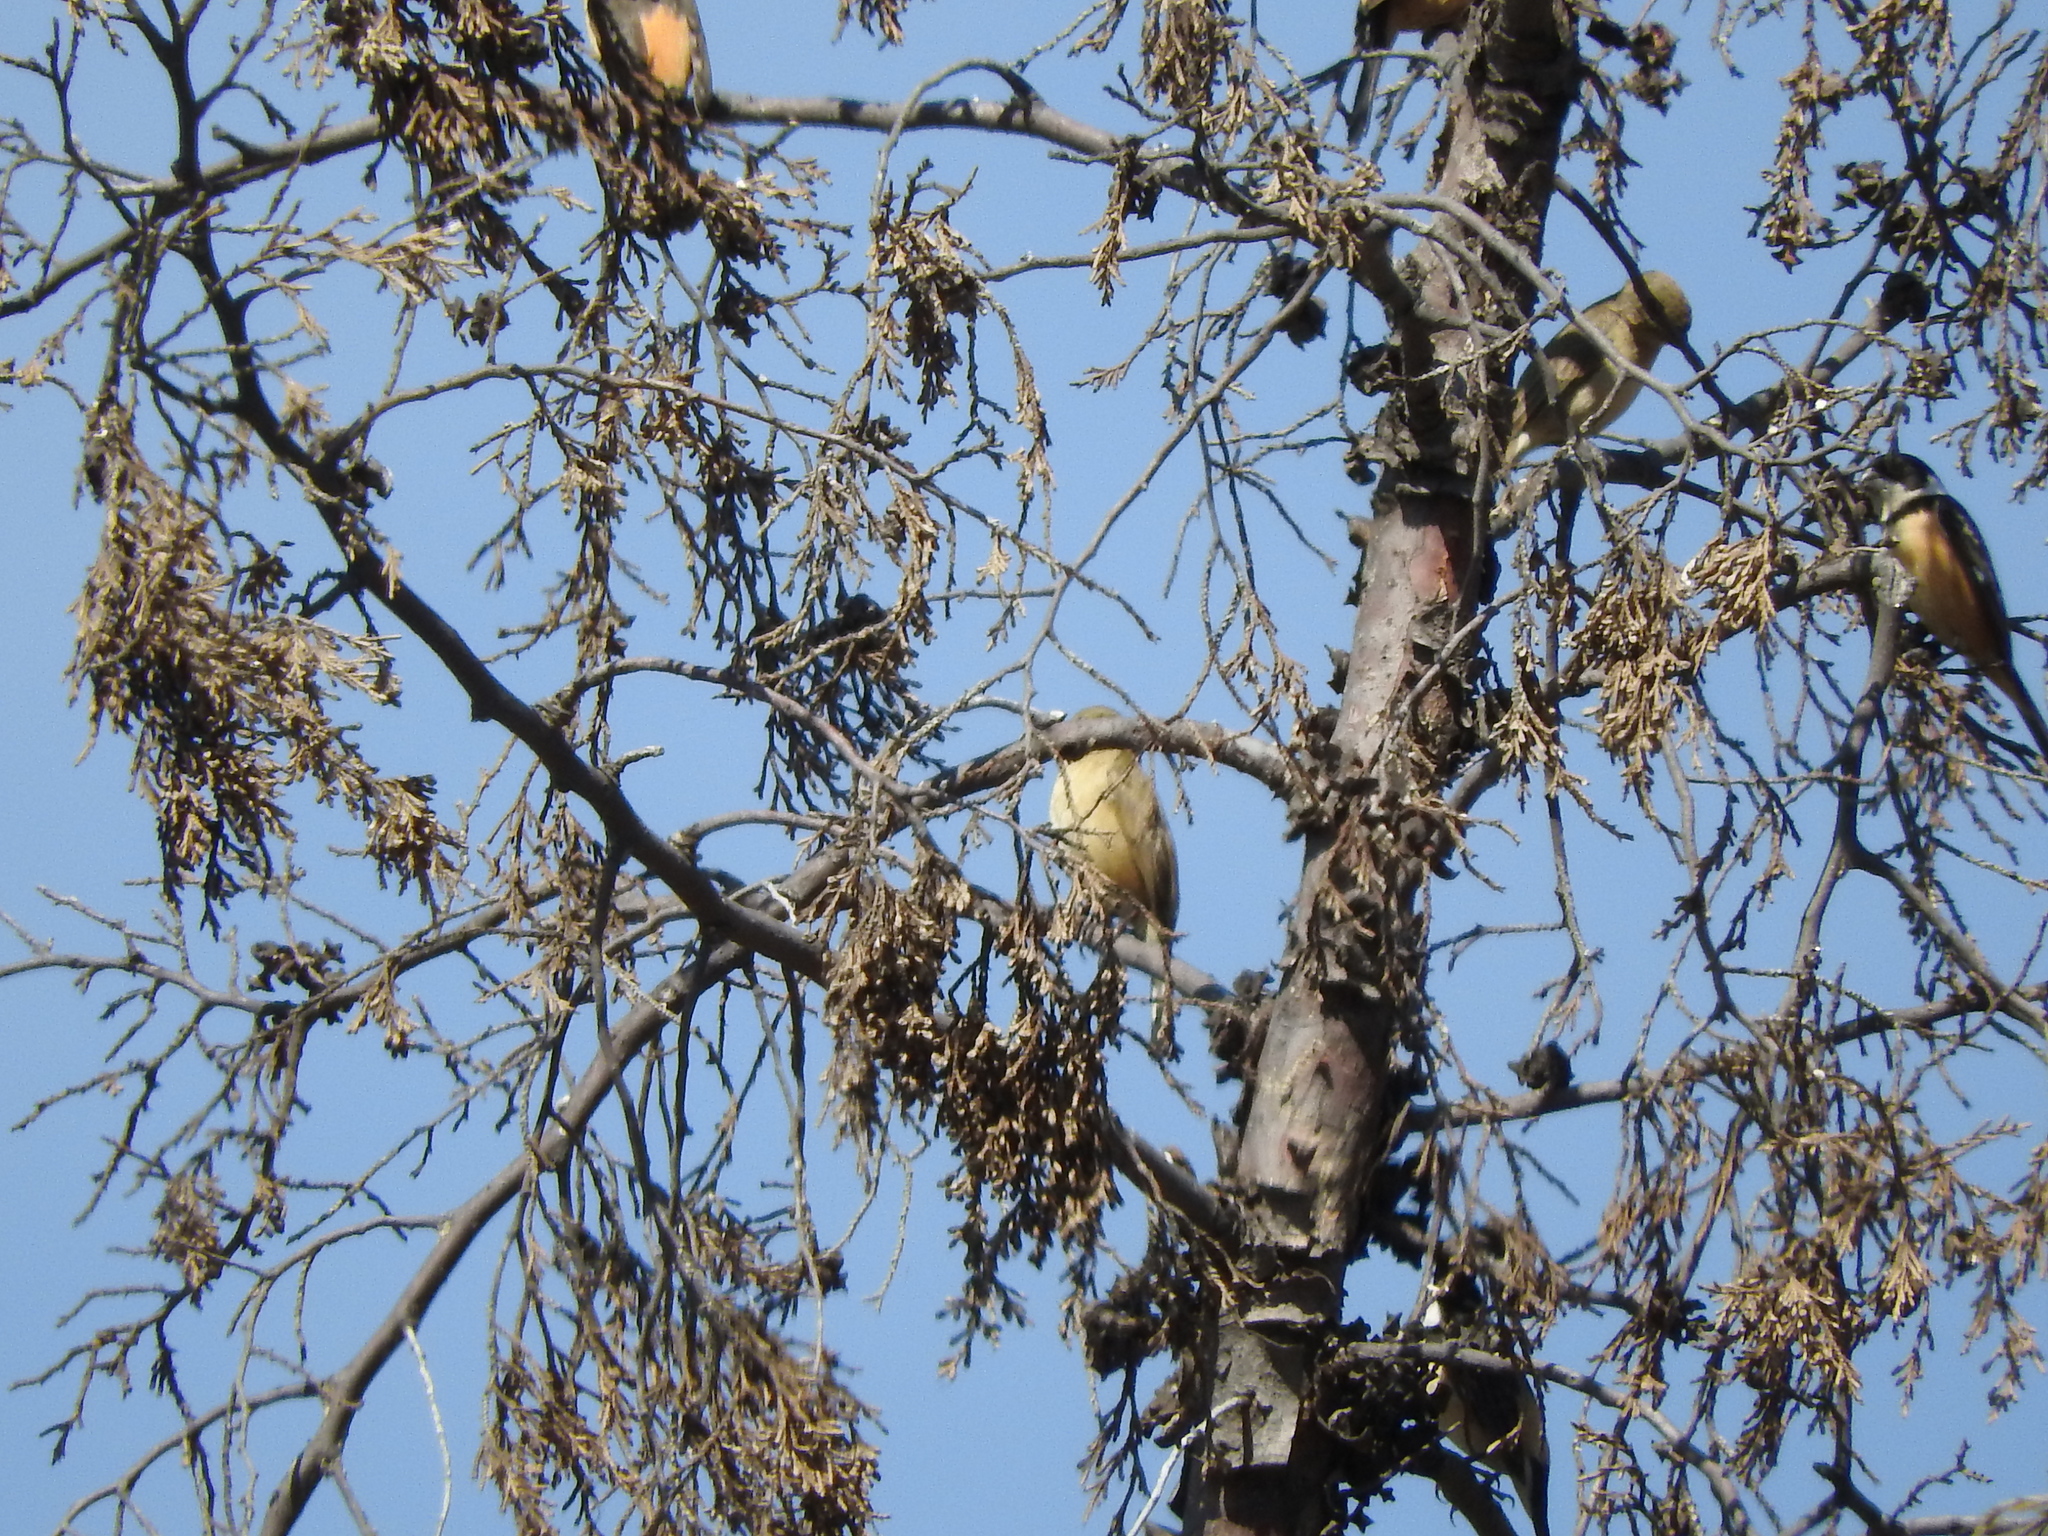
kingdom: Animalia
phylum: Chordata
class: Aves
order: Passeriformes
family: Thraupidae
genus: Sporophila
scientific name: Sporophila torqueola
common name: White-collared seedeater
